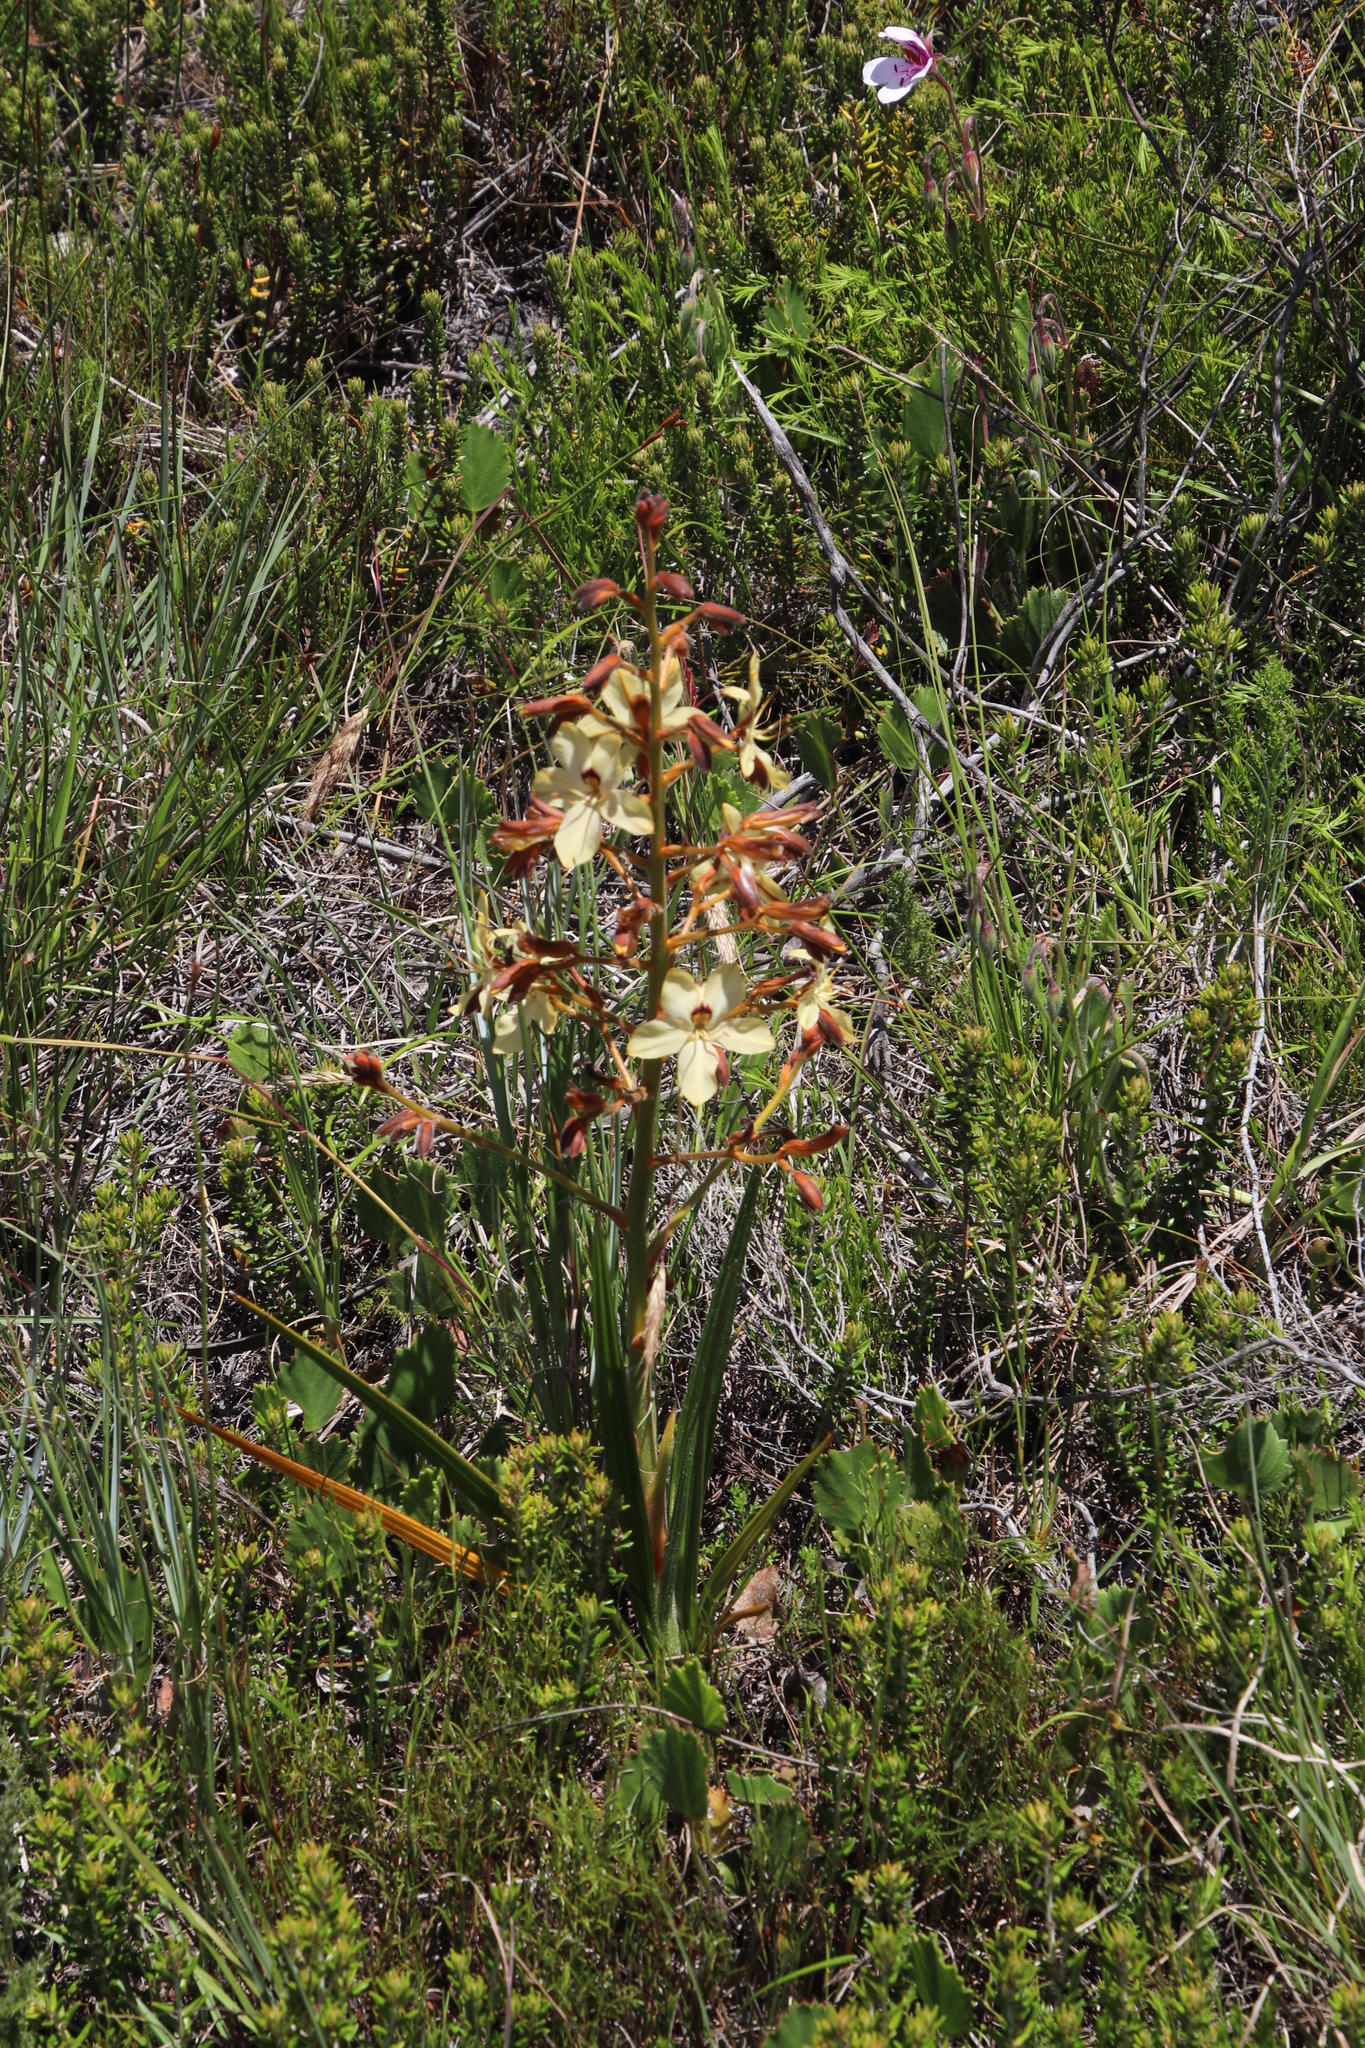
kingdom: Plantae
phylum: Tracheophyta
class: Liliopsida
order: Commelinales
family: Haemodoraceae
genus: Wachendorfia
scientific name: Wachendorfia paniculata
